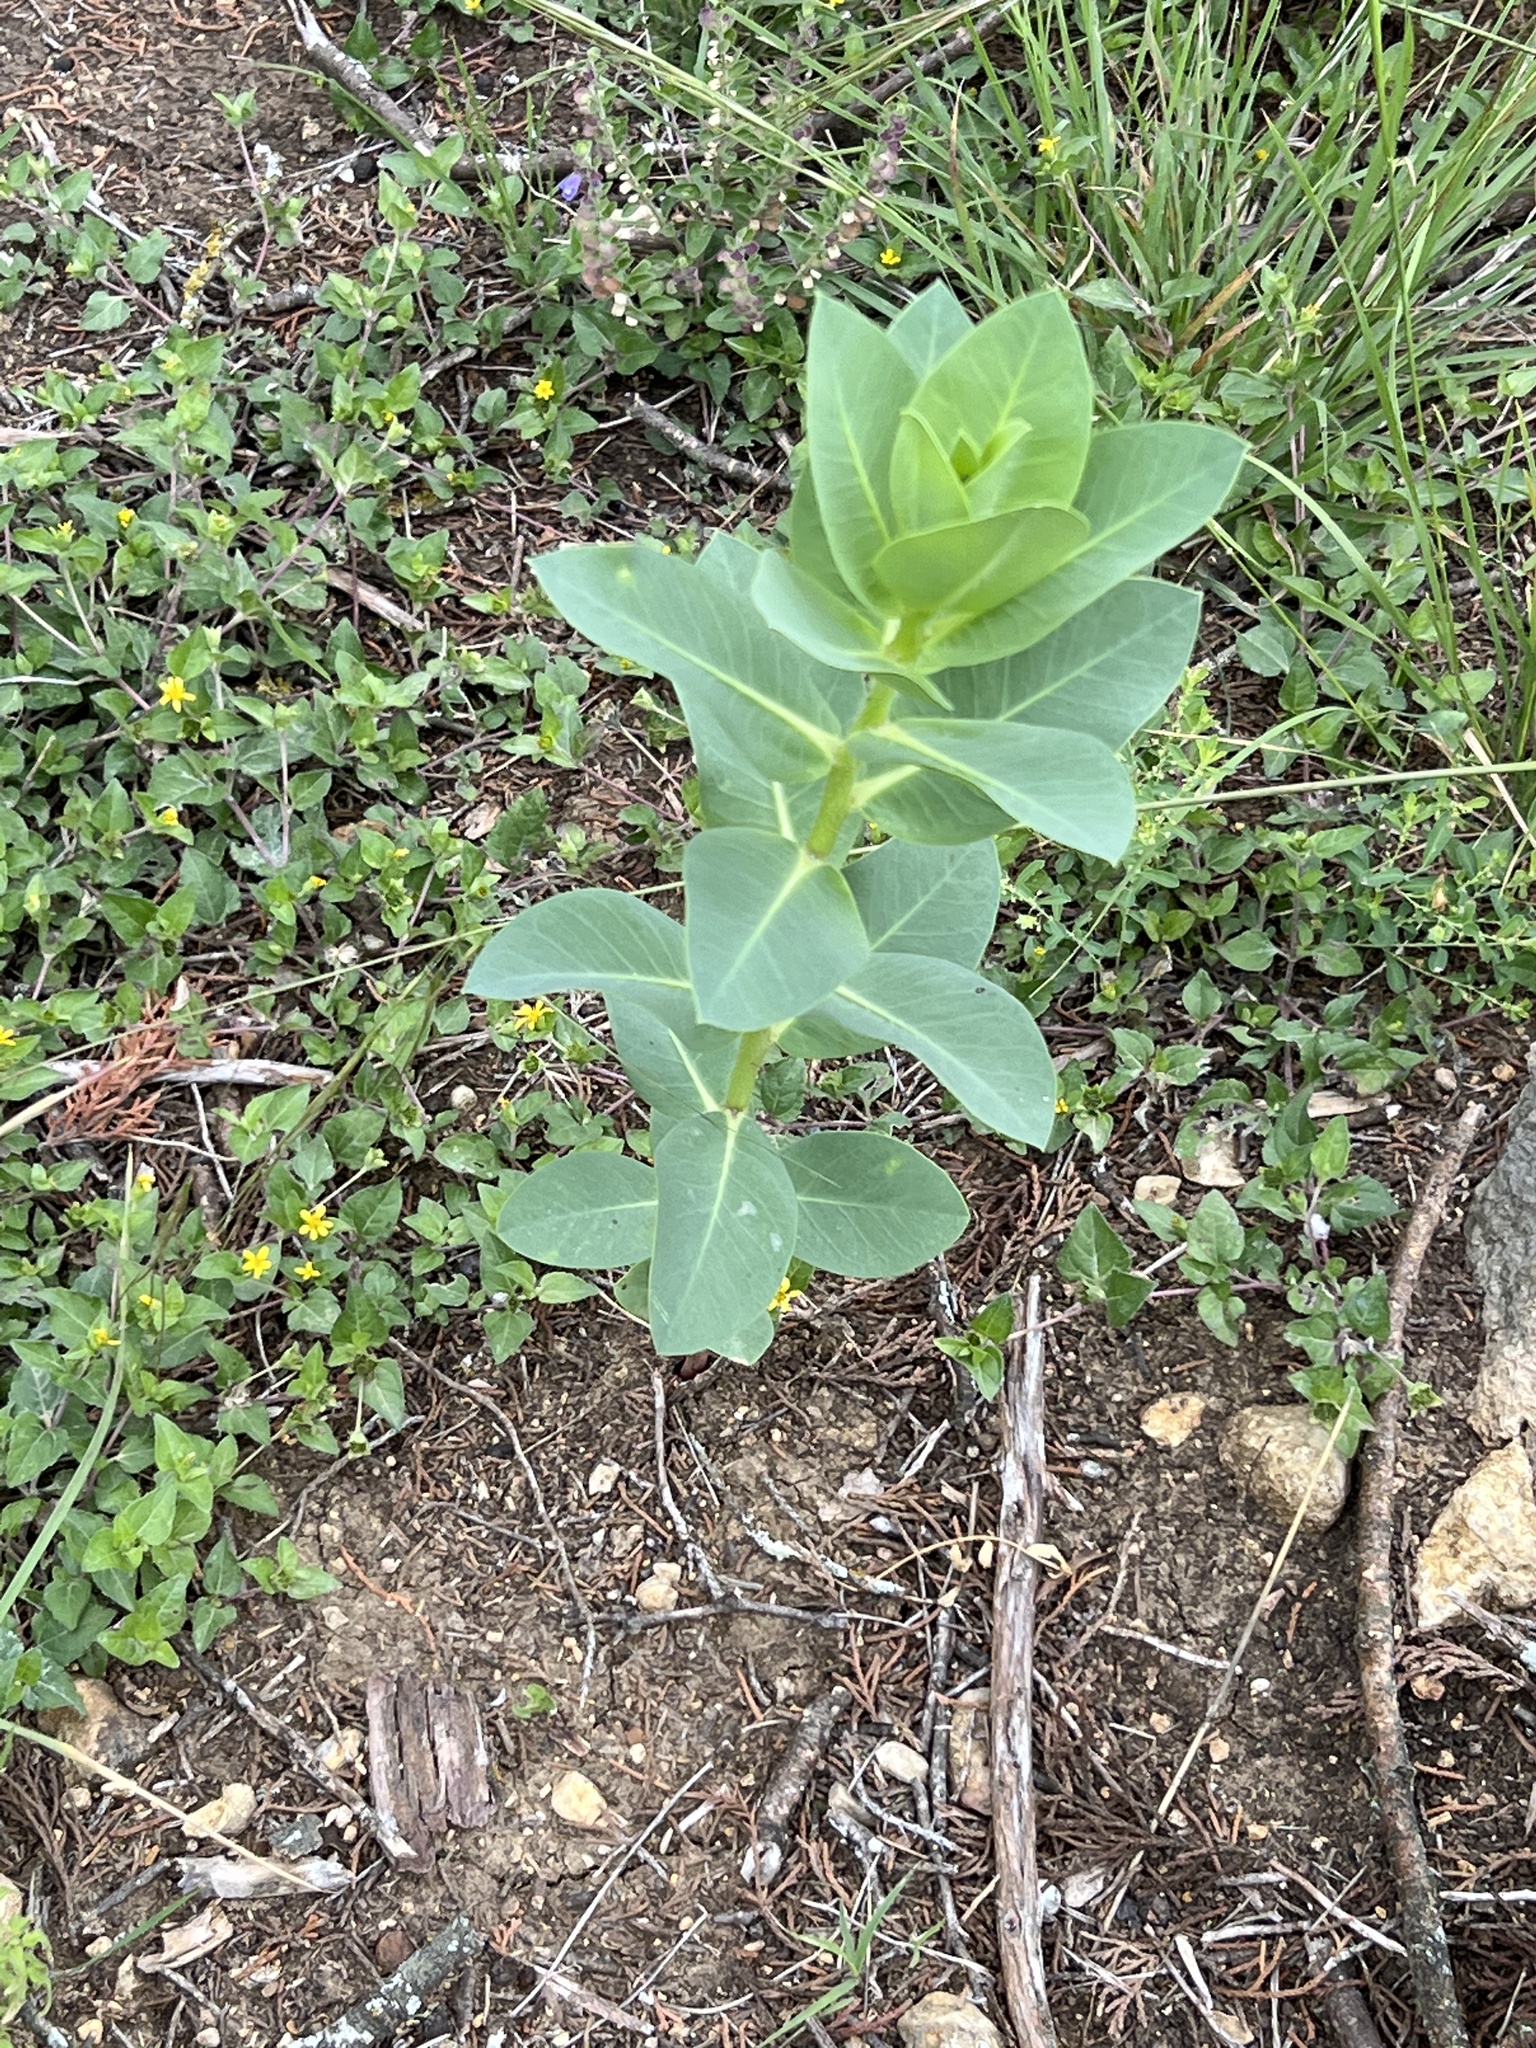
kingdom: Plantae
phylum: Tracheophyta
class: Magnoliopsida
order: Malpighiales
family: Euphorbiaceae
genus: Euphorbia
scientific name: Euphorbia marginata
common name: Ghostweed
